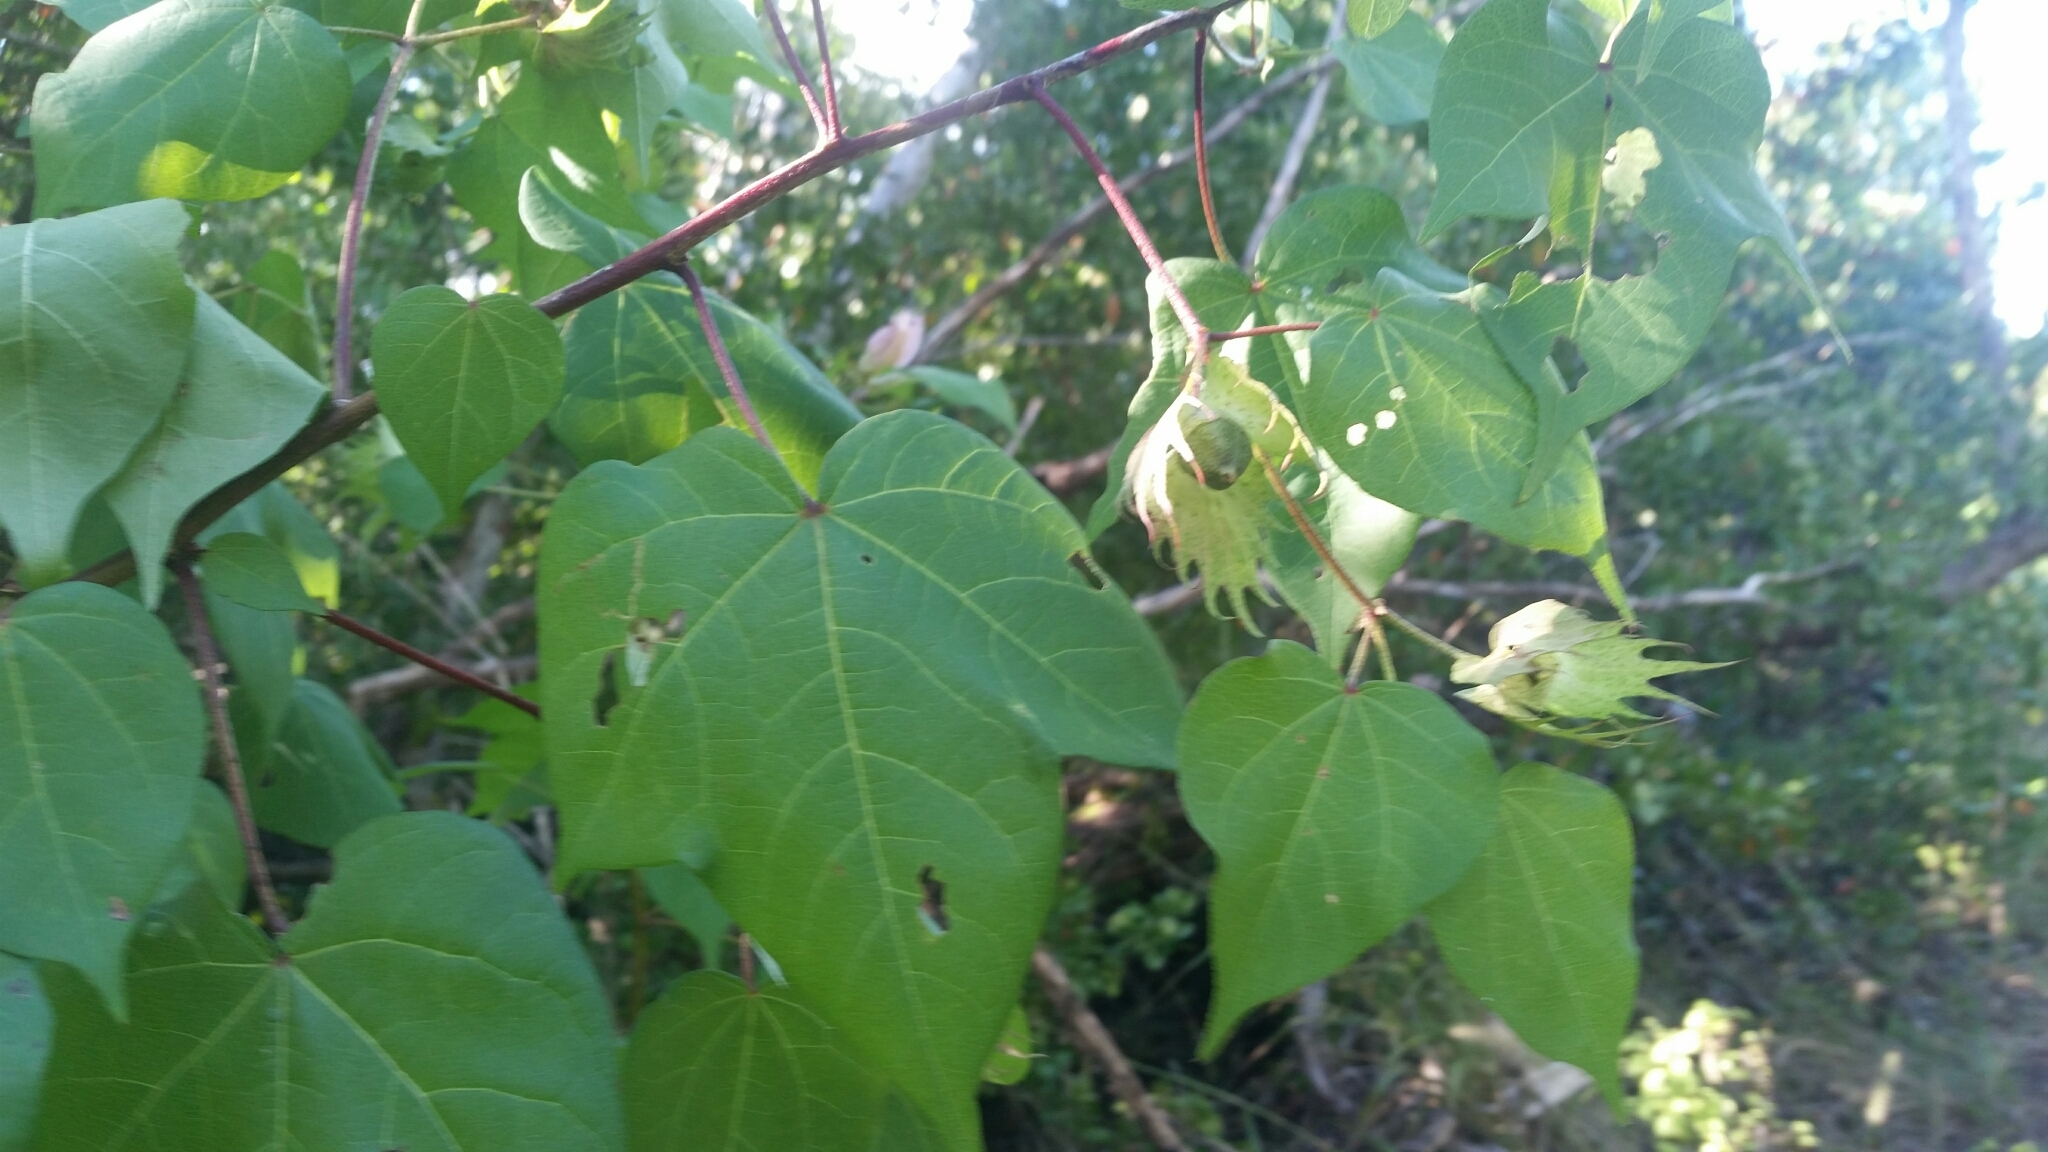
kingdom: Plantae
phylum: Tracheophyta
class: Magnoliopsida
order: Malvales
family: Malvaceae
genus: Gossypium
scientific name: Gossypium hirsutum
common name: Cotton
